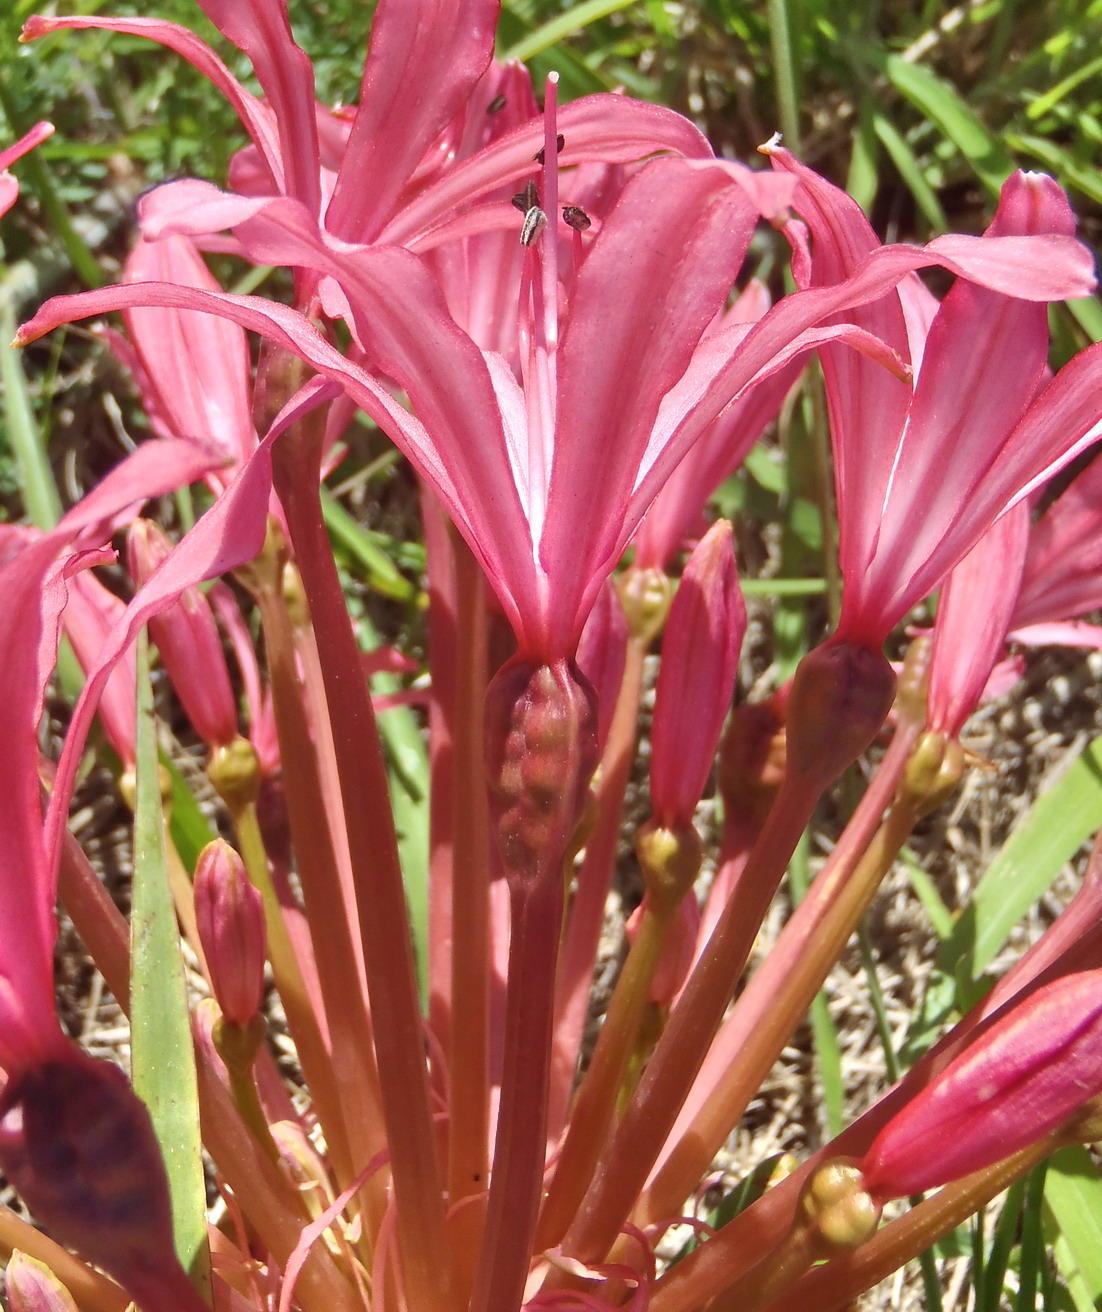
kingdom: Plantae
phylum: Tracheophyta
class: Liliopsida
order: Asparagales
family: Amaryllidaceae
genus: Brunsvigia
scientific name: Brunsvigia gregaria
